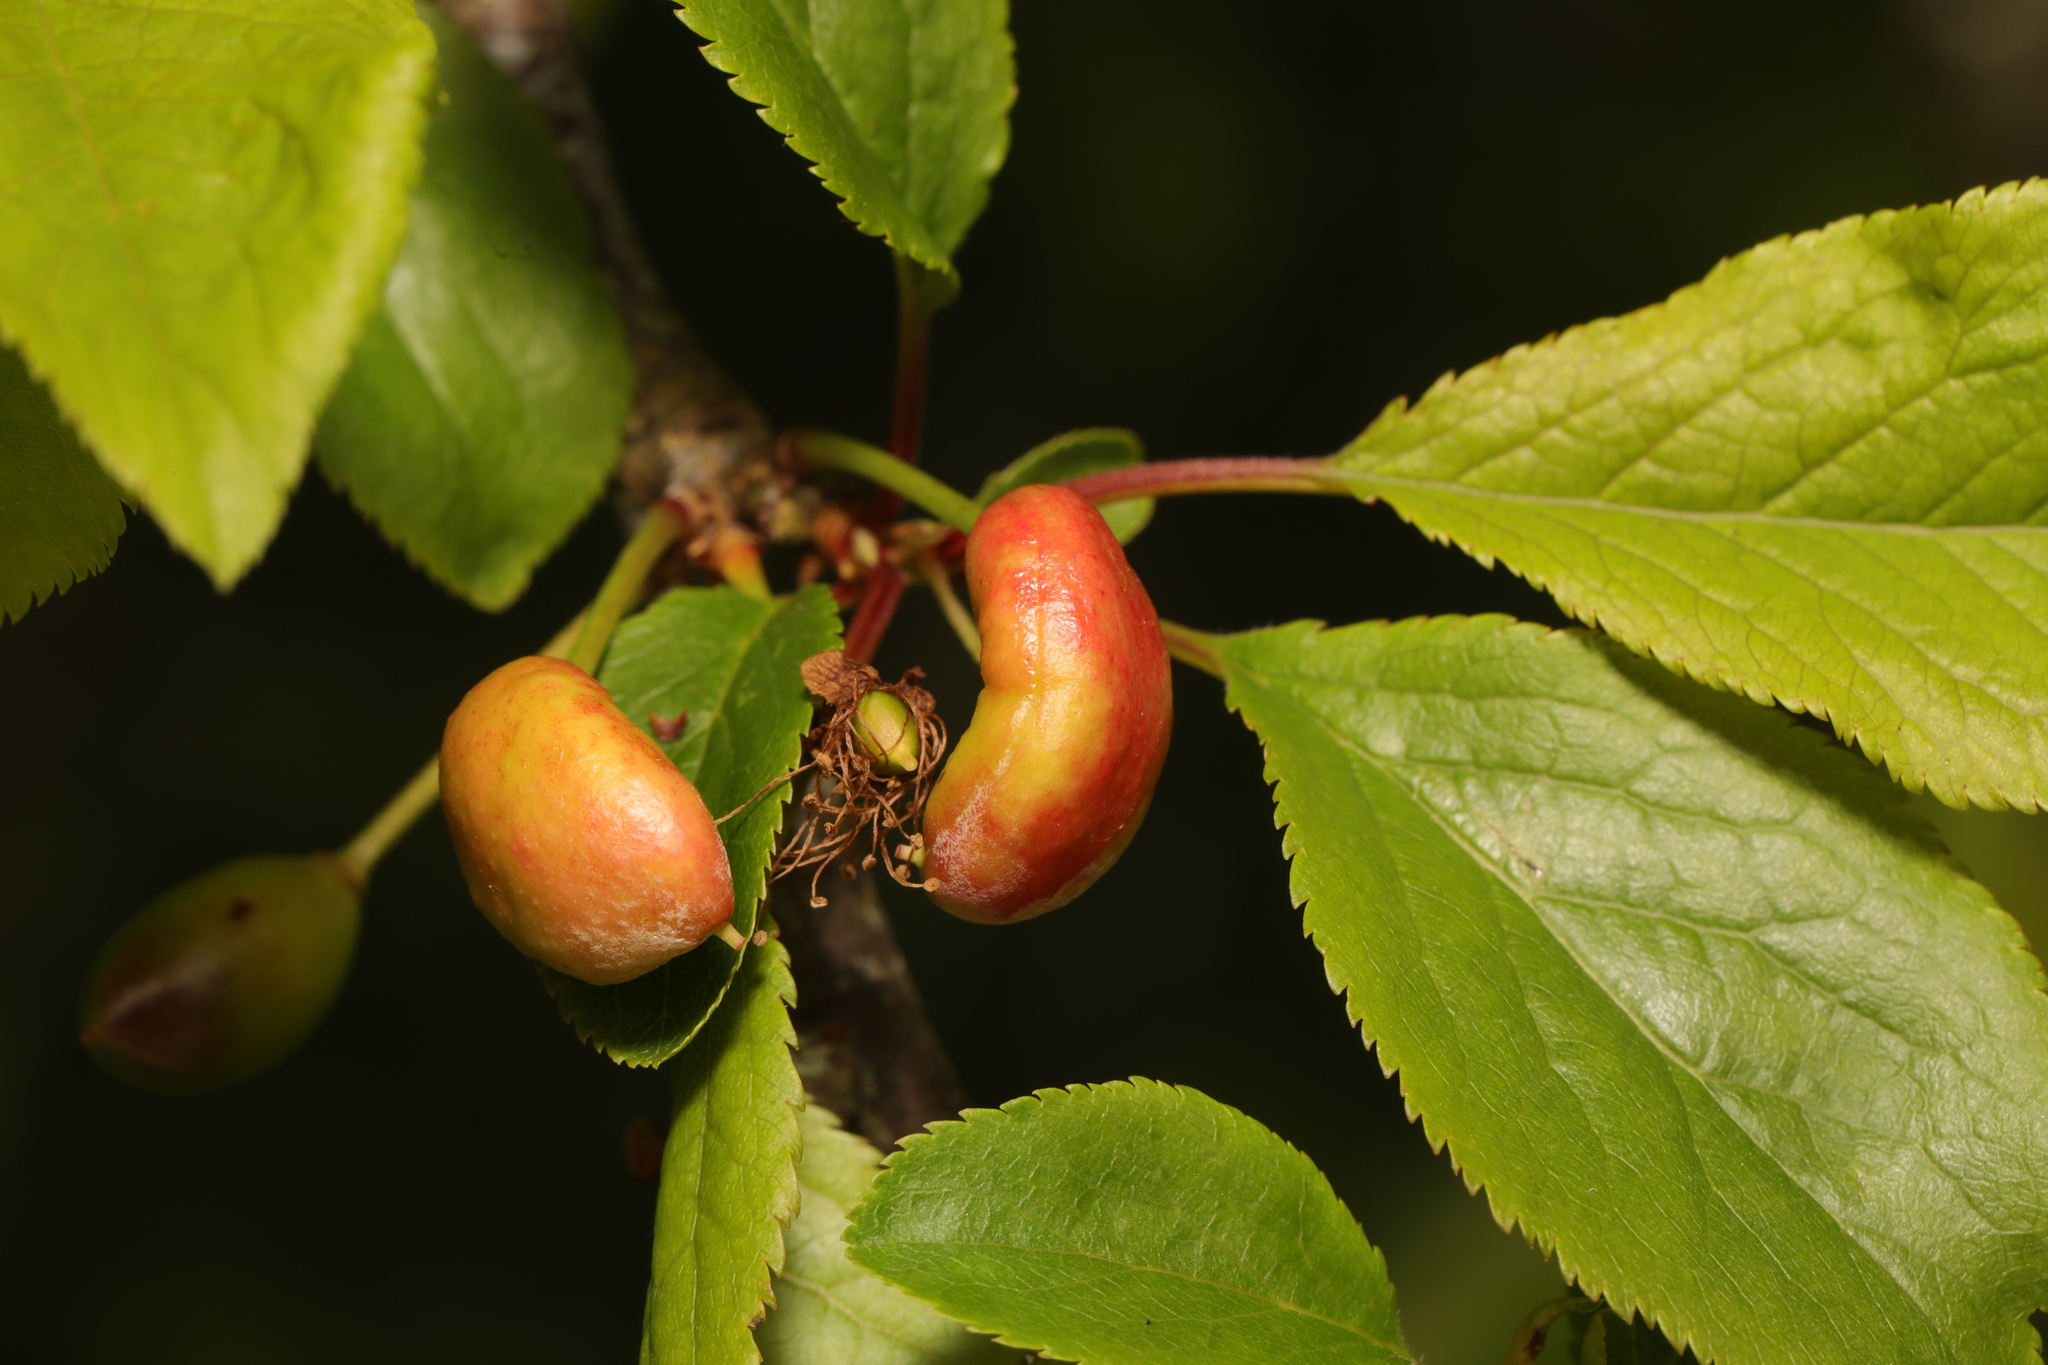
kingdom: Fungi
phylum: Ascomycota
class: Taphrinomycetes
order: Taphrinales
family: Taphrinaceae
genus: Taphrina
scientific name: Taphrina pruni
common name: Pocket plum
